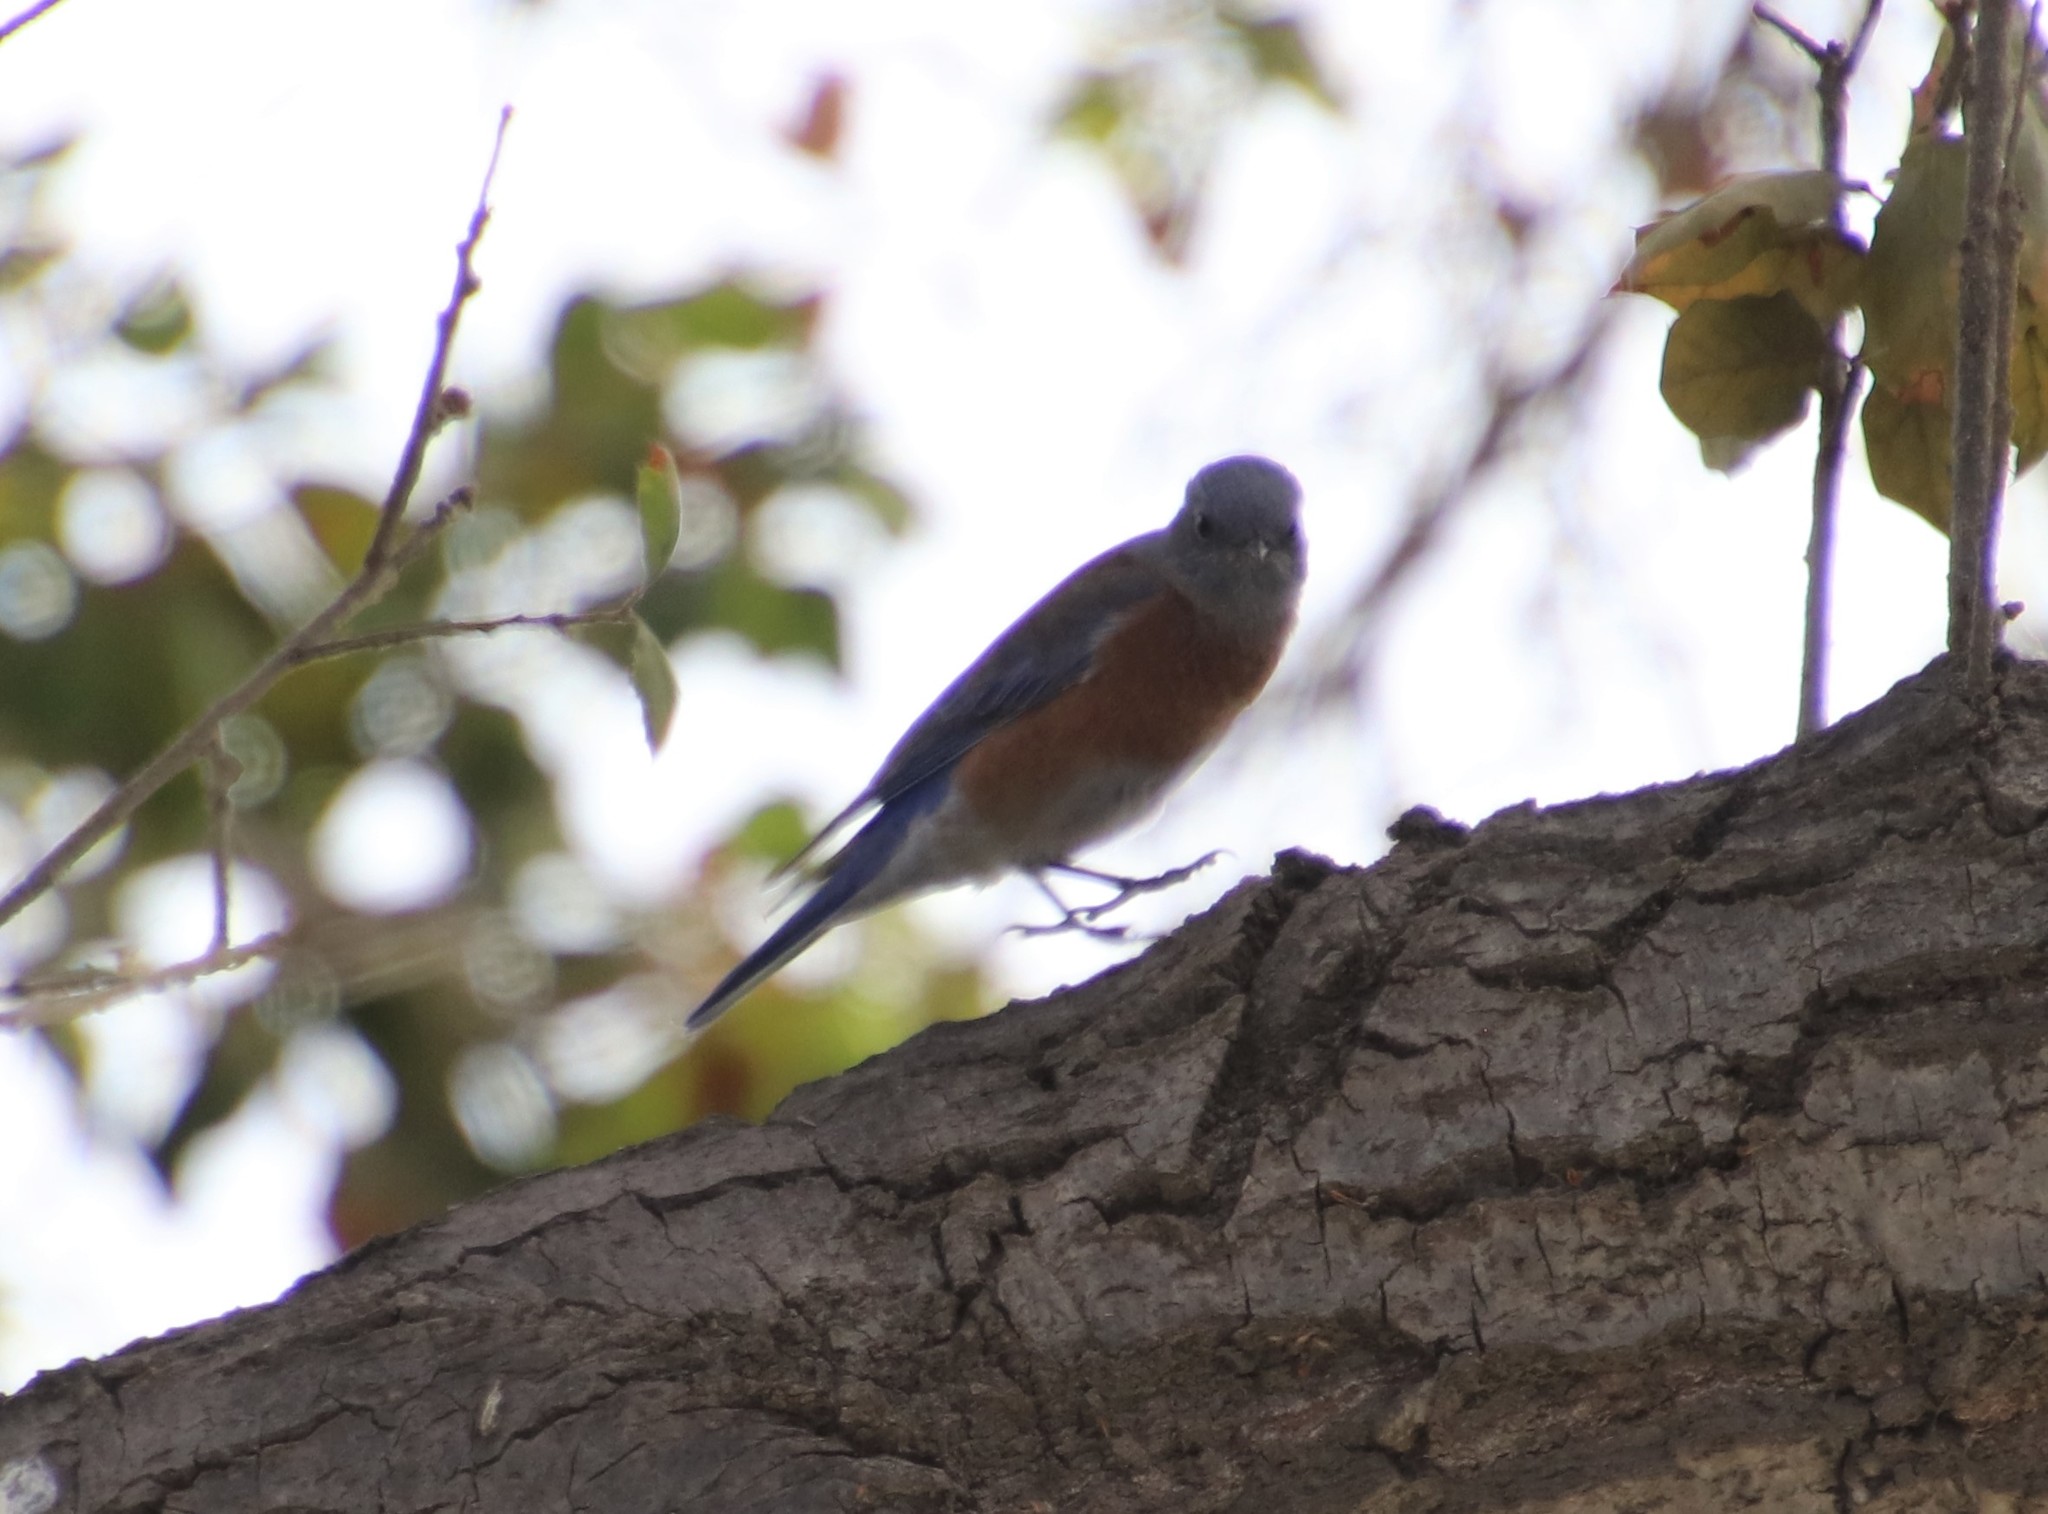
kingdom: Animalia
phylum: Chordata
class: Aves
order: Passeriformes
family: Turdidae
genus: Sialia
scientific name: Sialia mexicana
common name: Western bluebird
